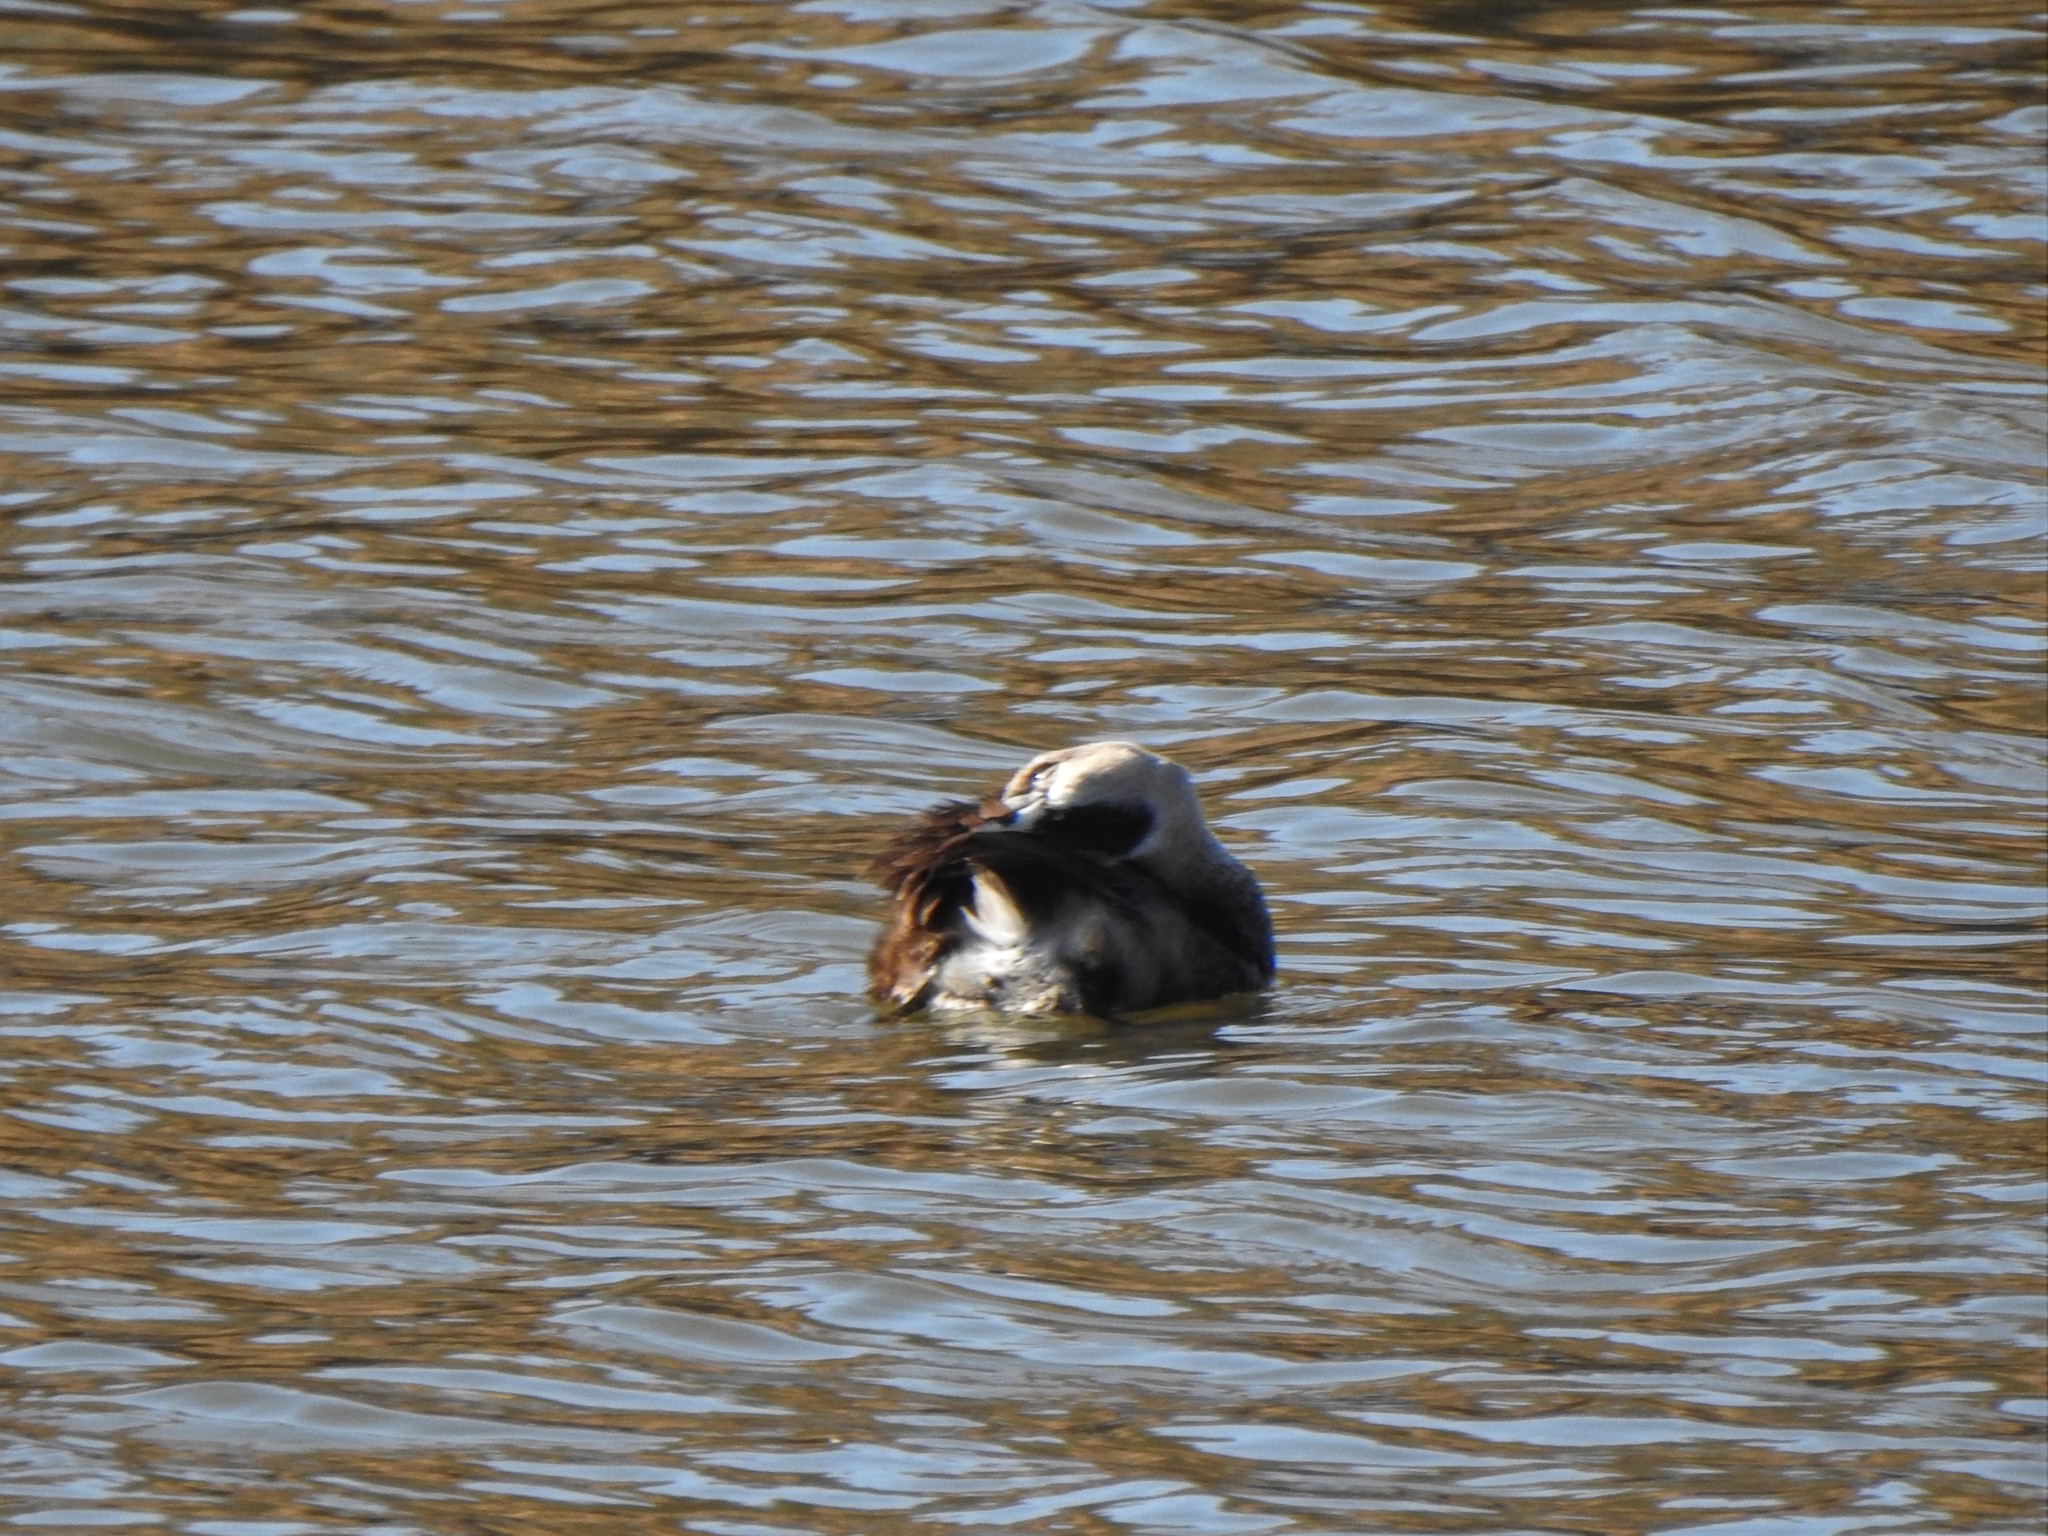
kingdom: Animalia
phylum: Chordata
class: Aves
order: Podicipediformes
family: Podicipedidae
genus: Podilymbus
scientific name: Podilymbus podiceps
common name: Pied-billed grebe
